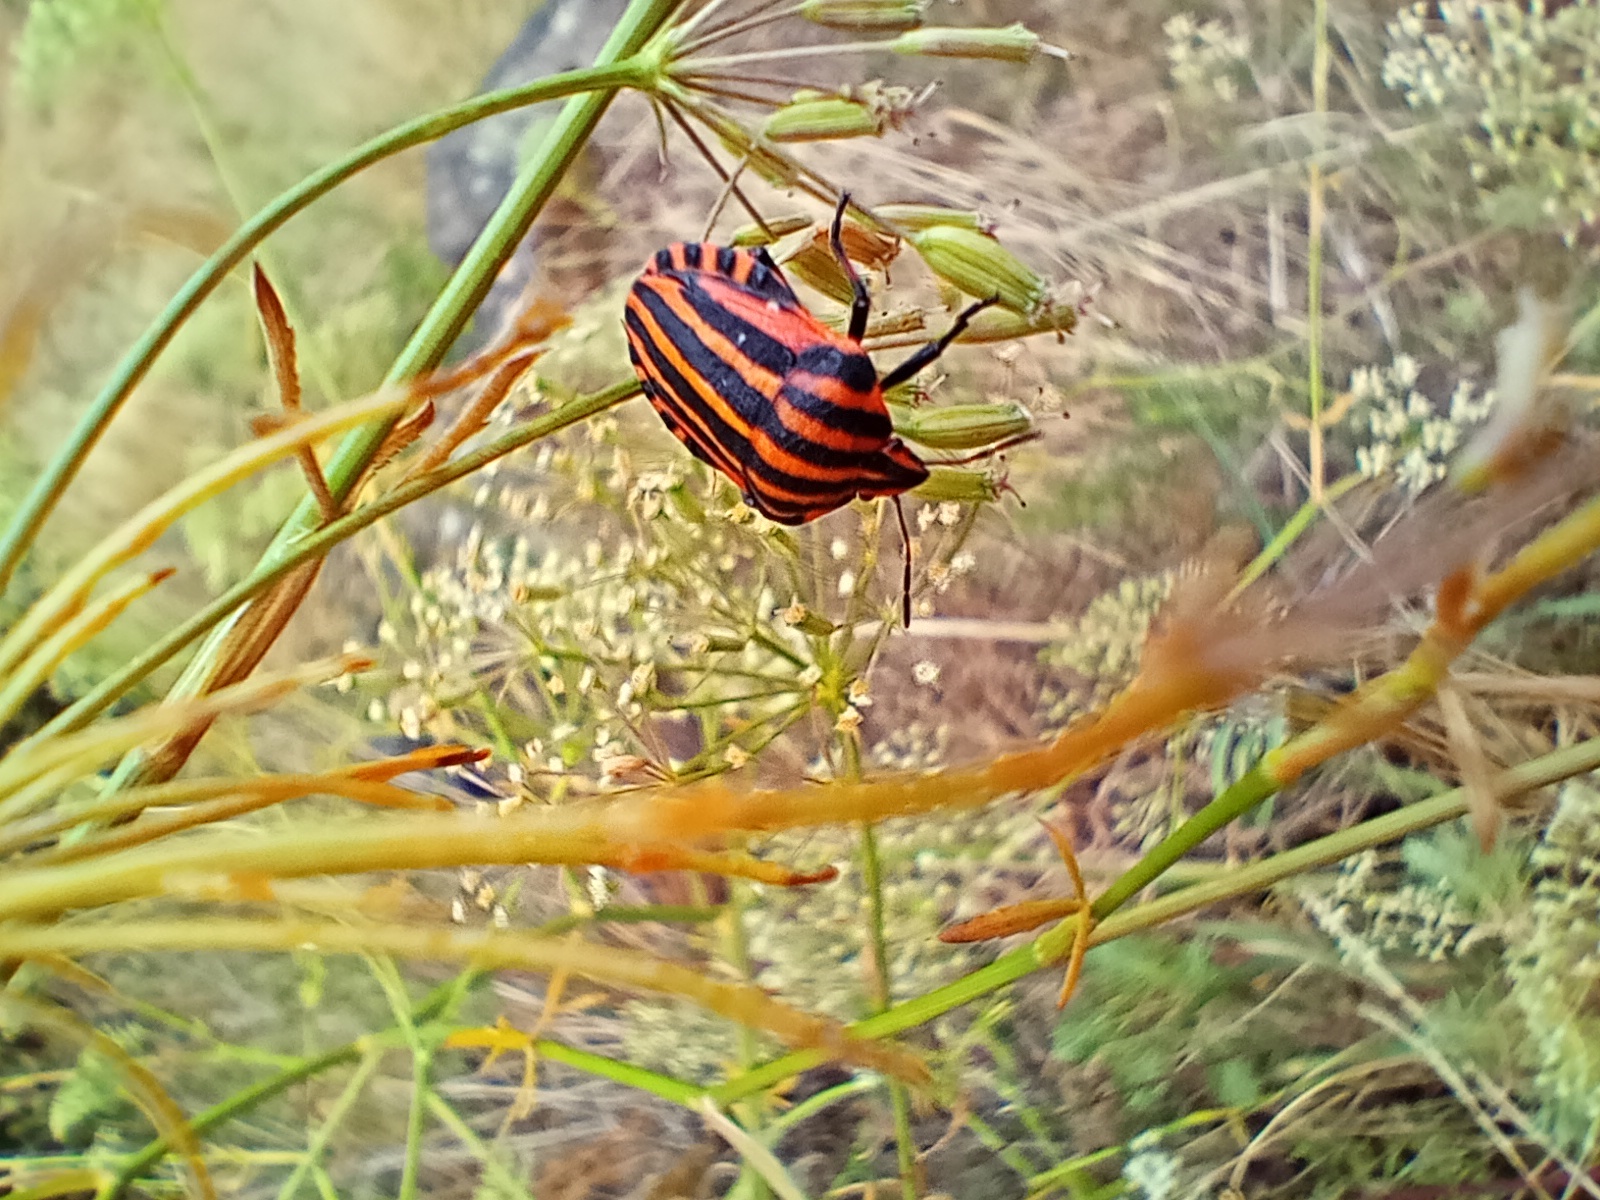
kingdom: Animalia
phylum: Arthropoda
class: Insecta
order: Hemiptera
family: Pentatomidae
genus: Graphosoma
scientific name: Graphosoma italicum
